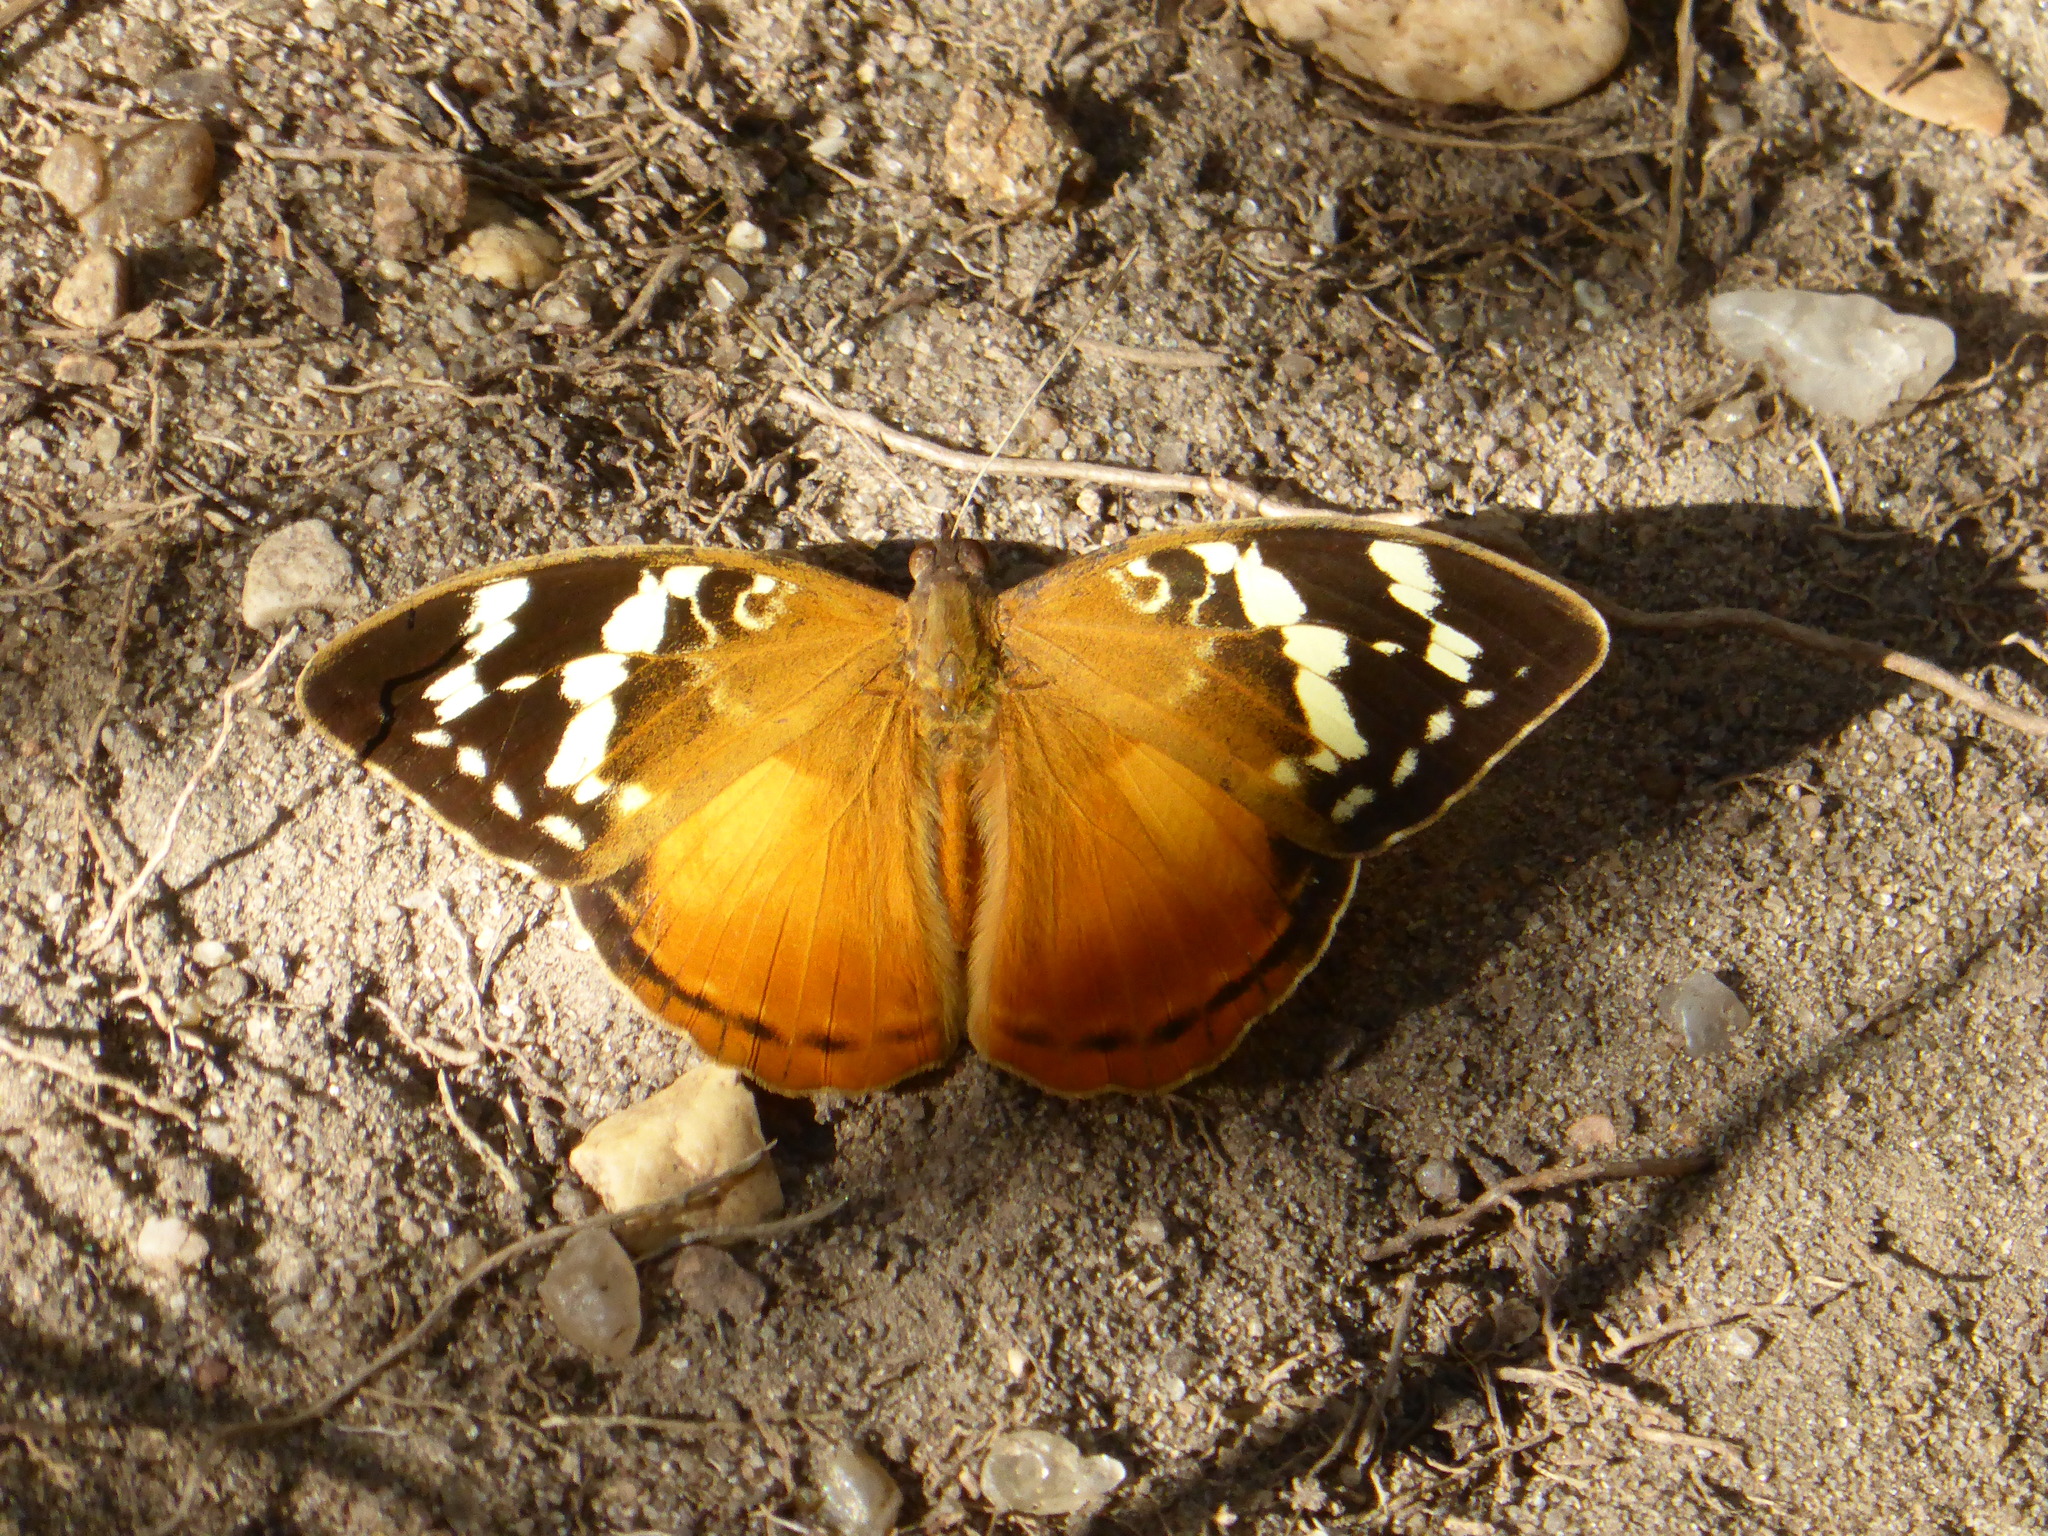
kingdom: Animalia
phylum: Arthropoda
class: Insecta
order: Lepidoptera
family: Nymphalidae
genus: Aterica
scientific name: Aterica rabena
